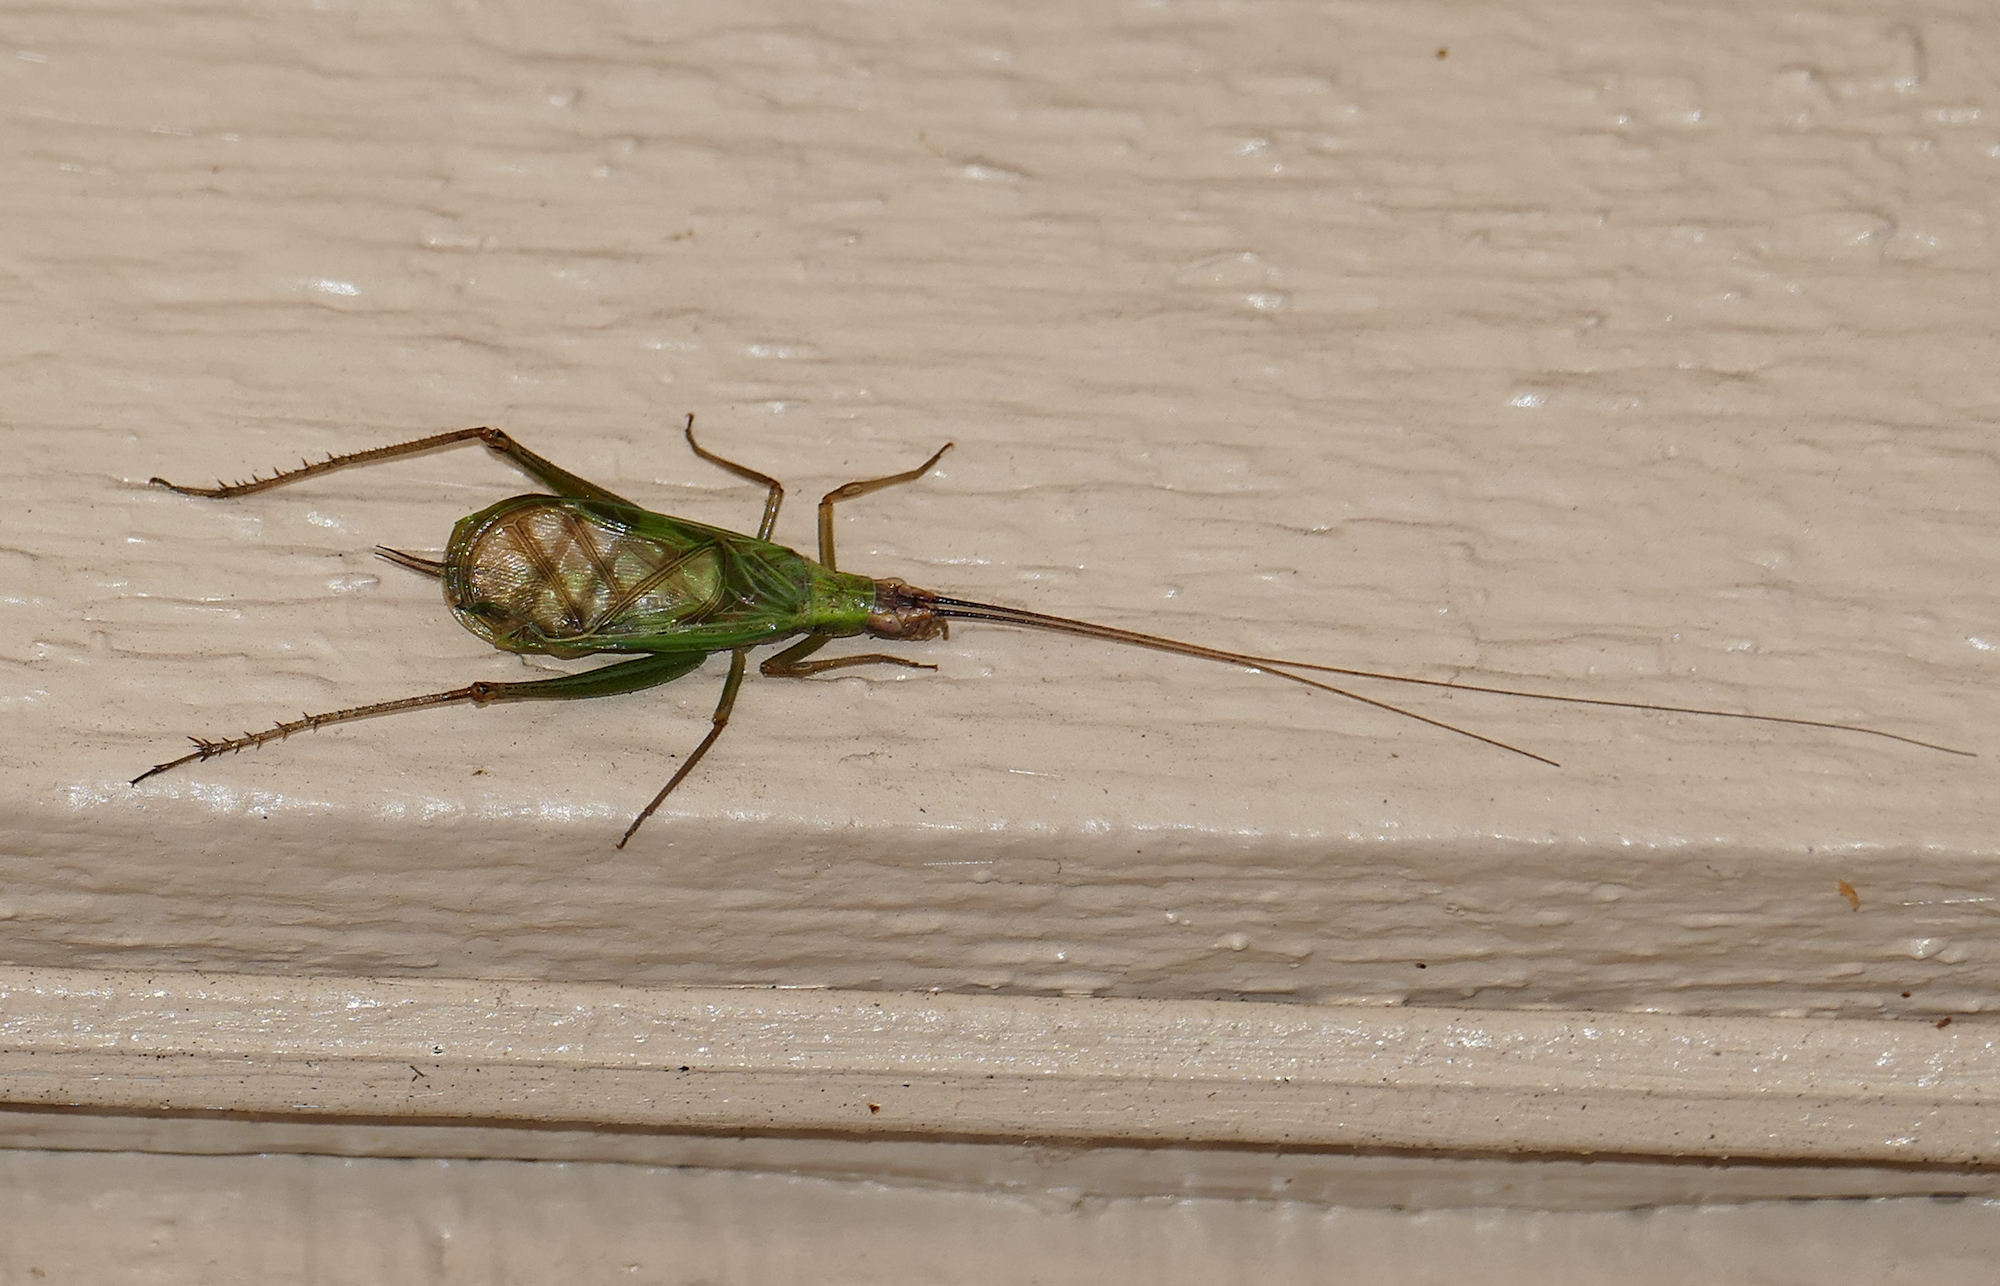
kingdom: Animalia
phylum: Arthropoda
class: Insecta
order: Orthoptera
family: Gryllidae
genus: Oecanthus
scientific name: Oecanthus californicus
